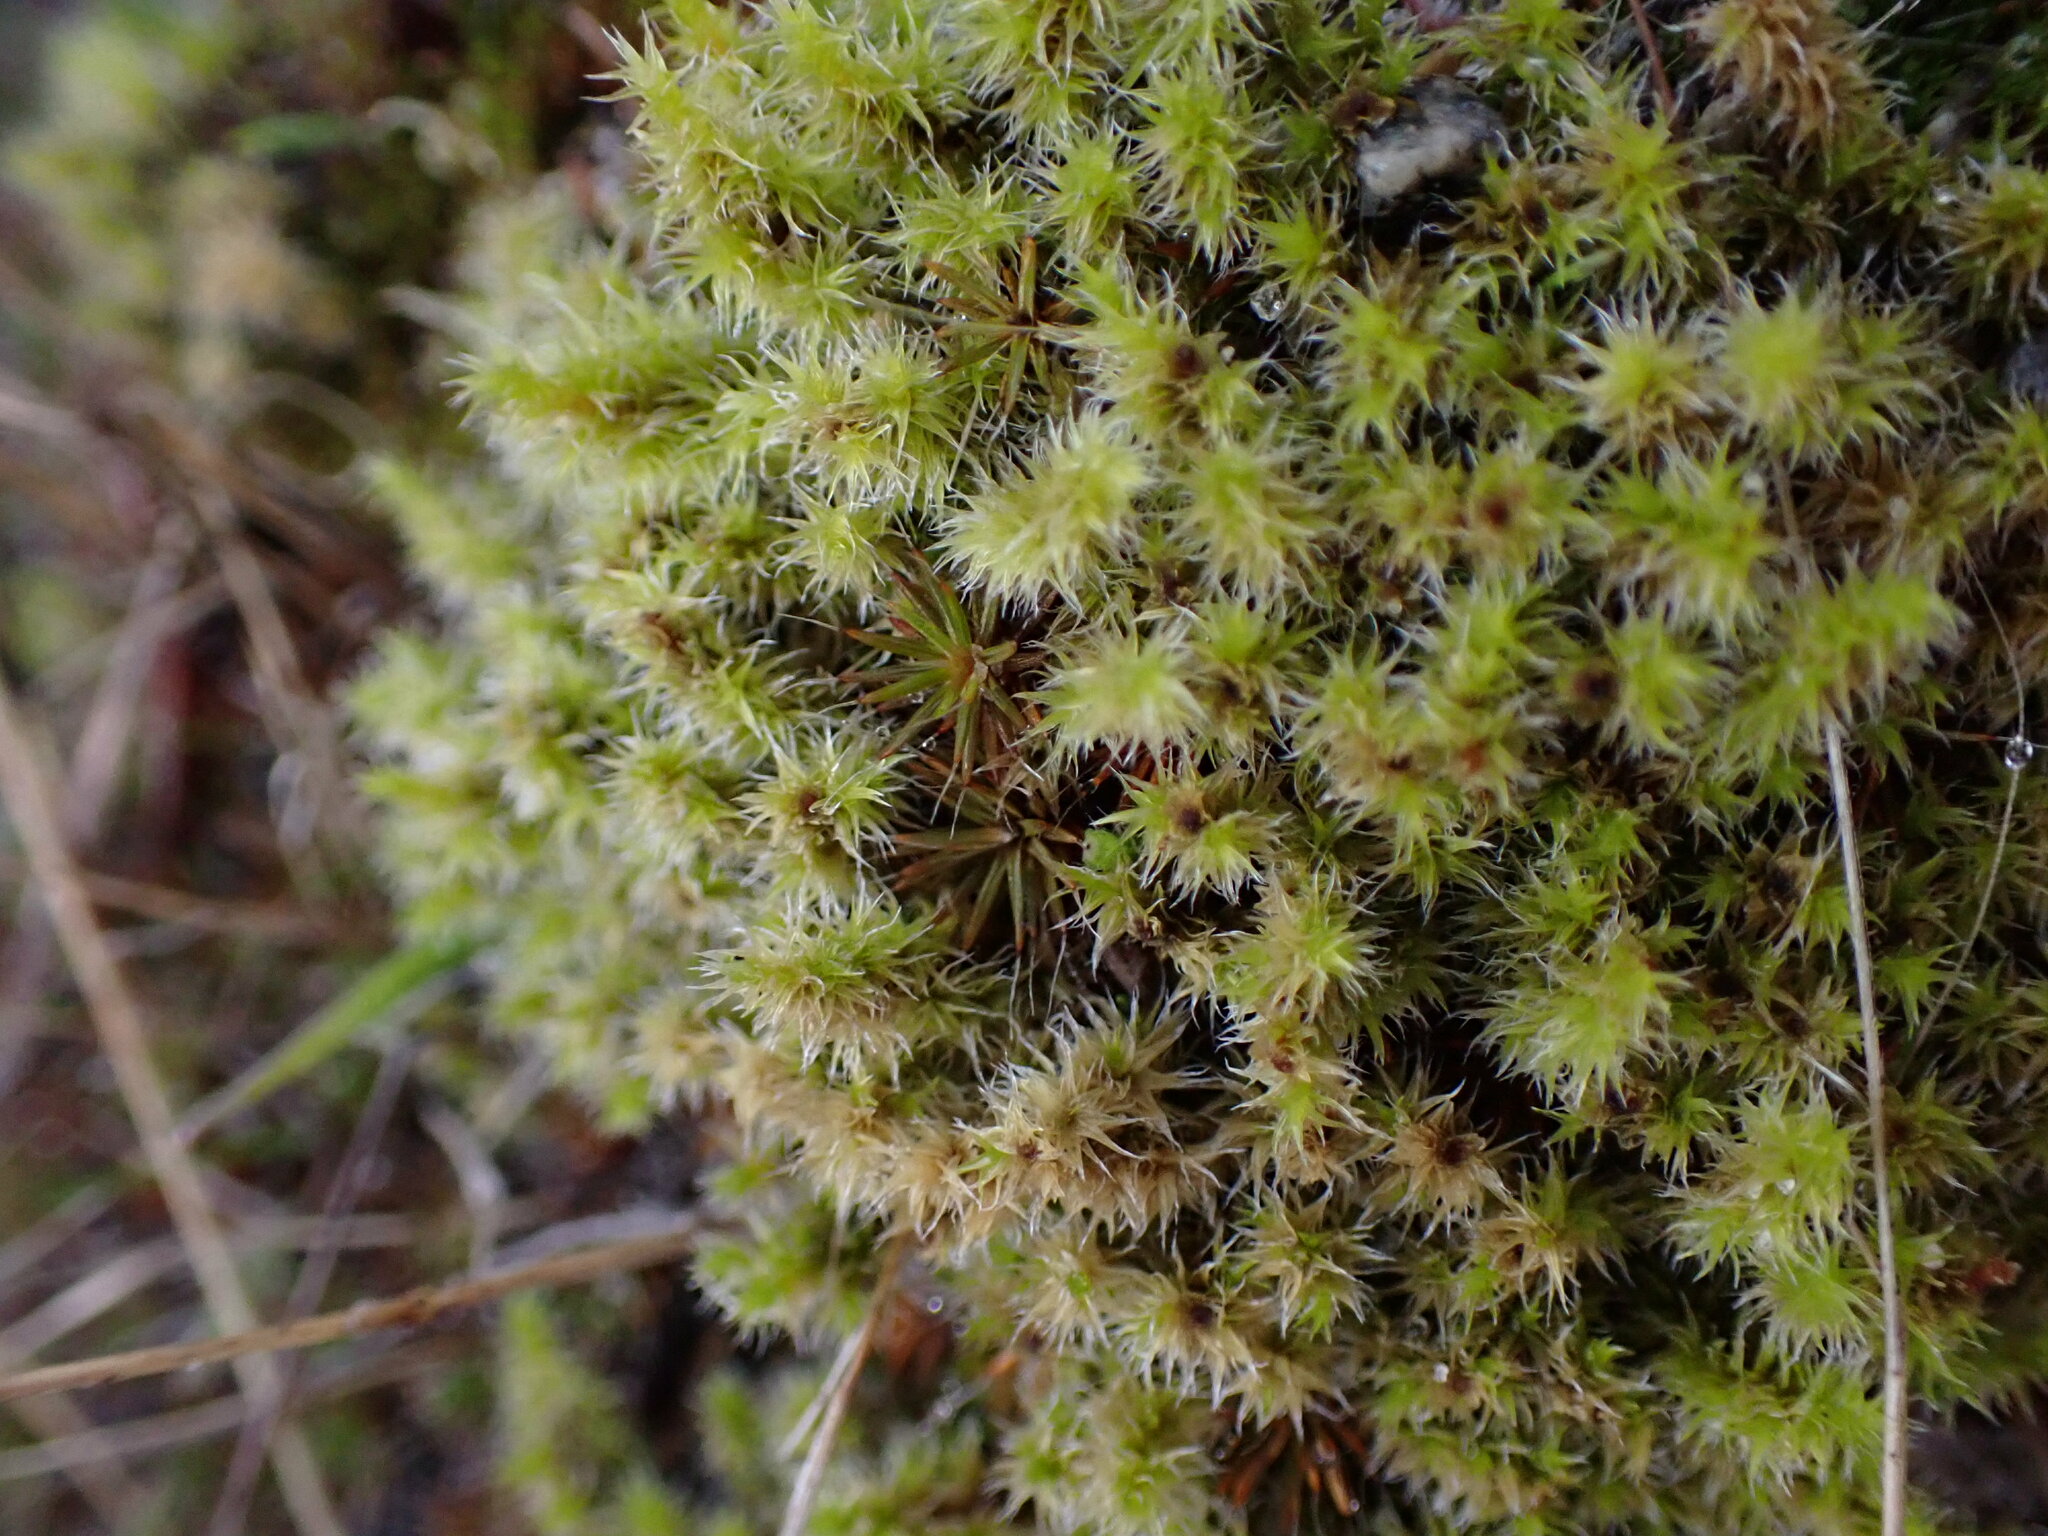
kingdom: Plantae
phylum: Bryophyta
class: Bryopsida
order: Grimmiales
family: Grimmiaceae
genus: Niphotrichum
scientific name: Niphotrichum elongatum
